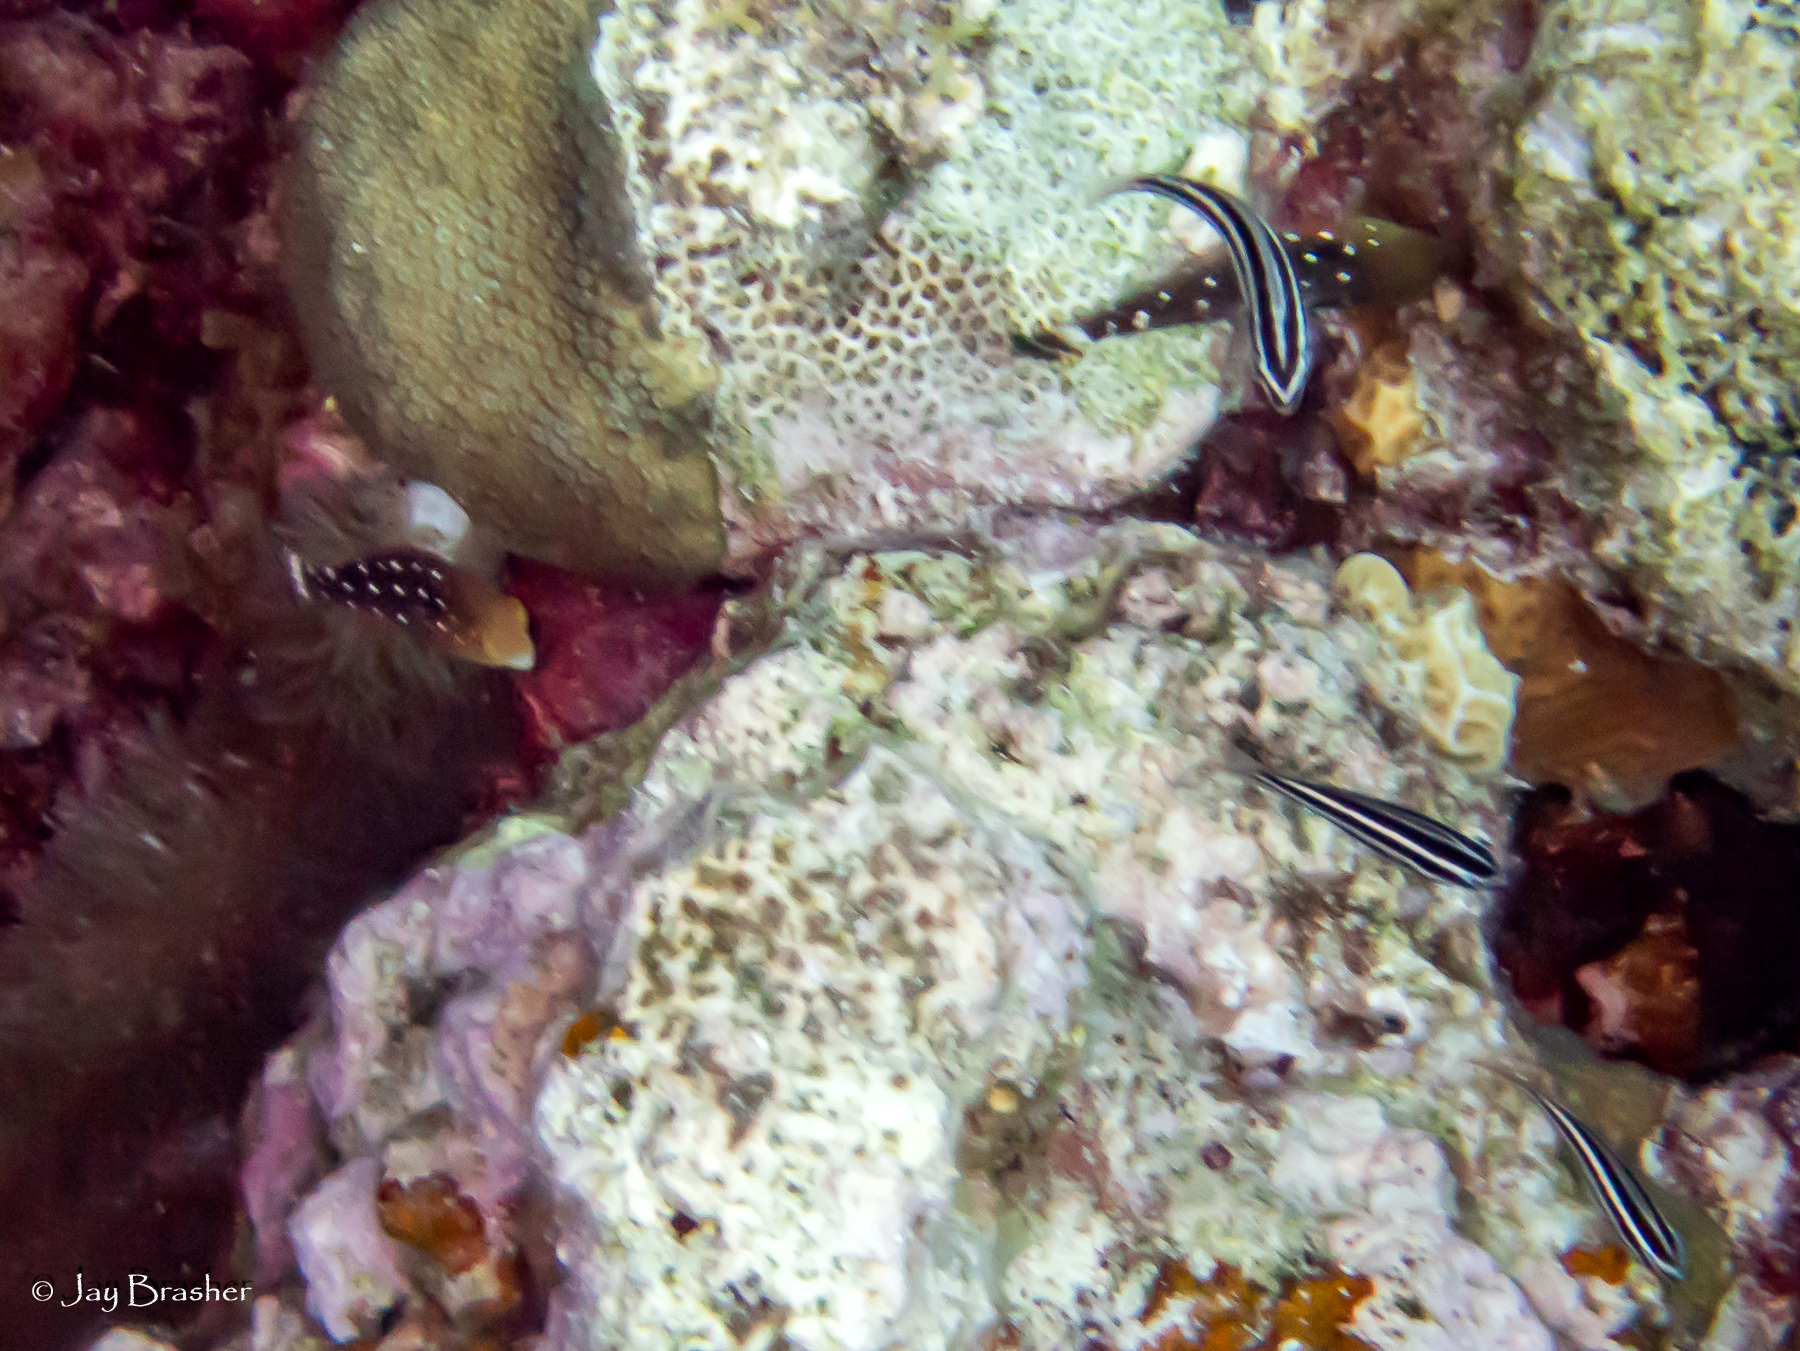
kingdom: Animalia
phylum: Chordata
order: Perciformes
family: Scaridae
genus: Scarus
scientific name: Scarus iseri
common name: Striped parrotfish
